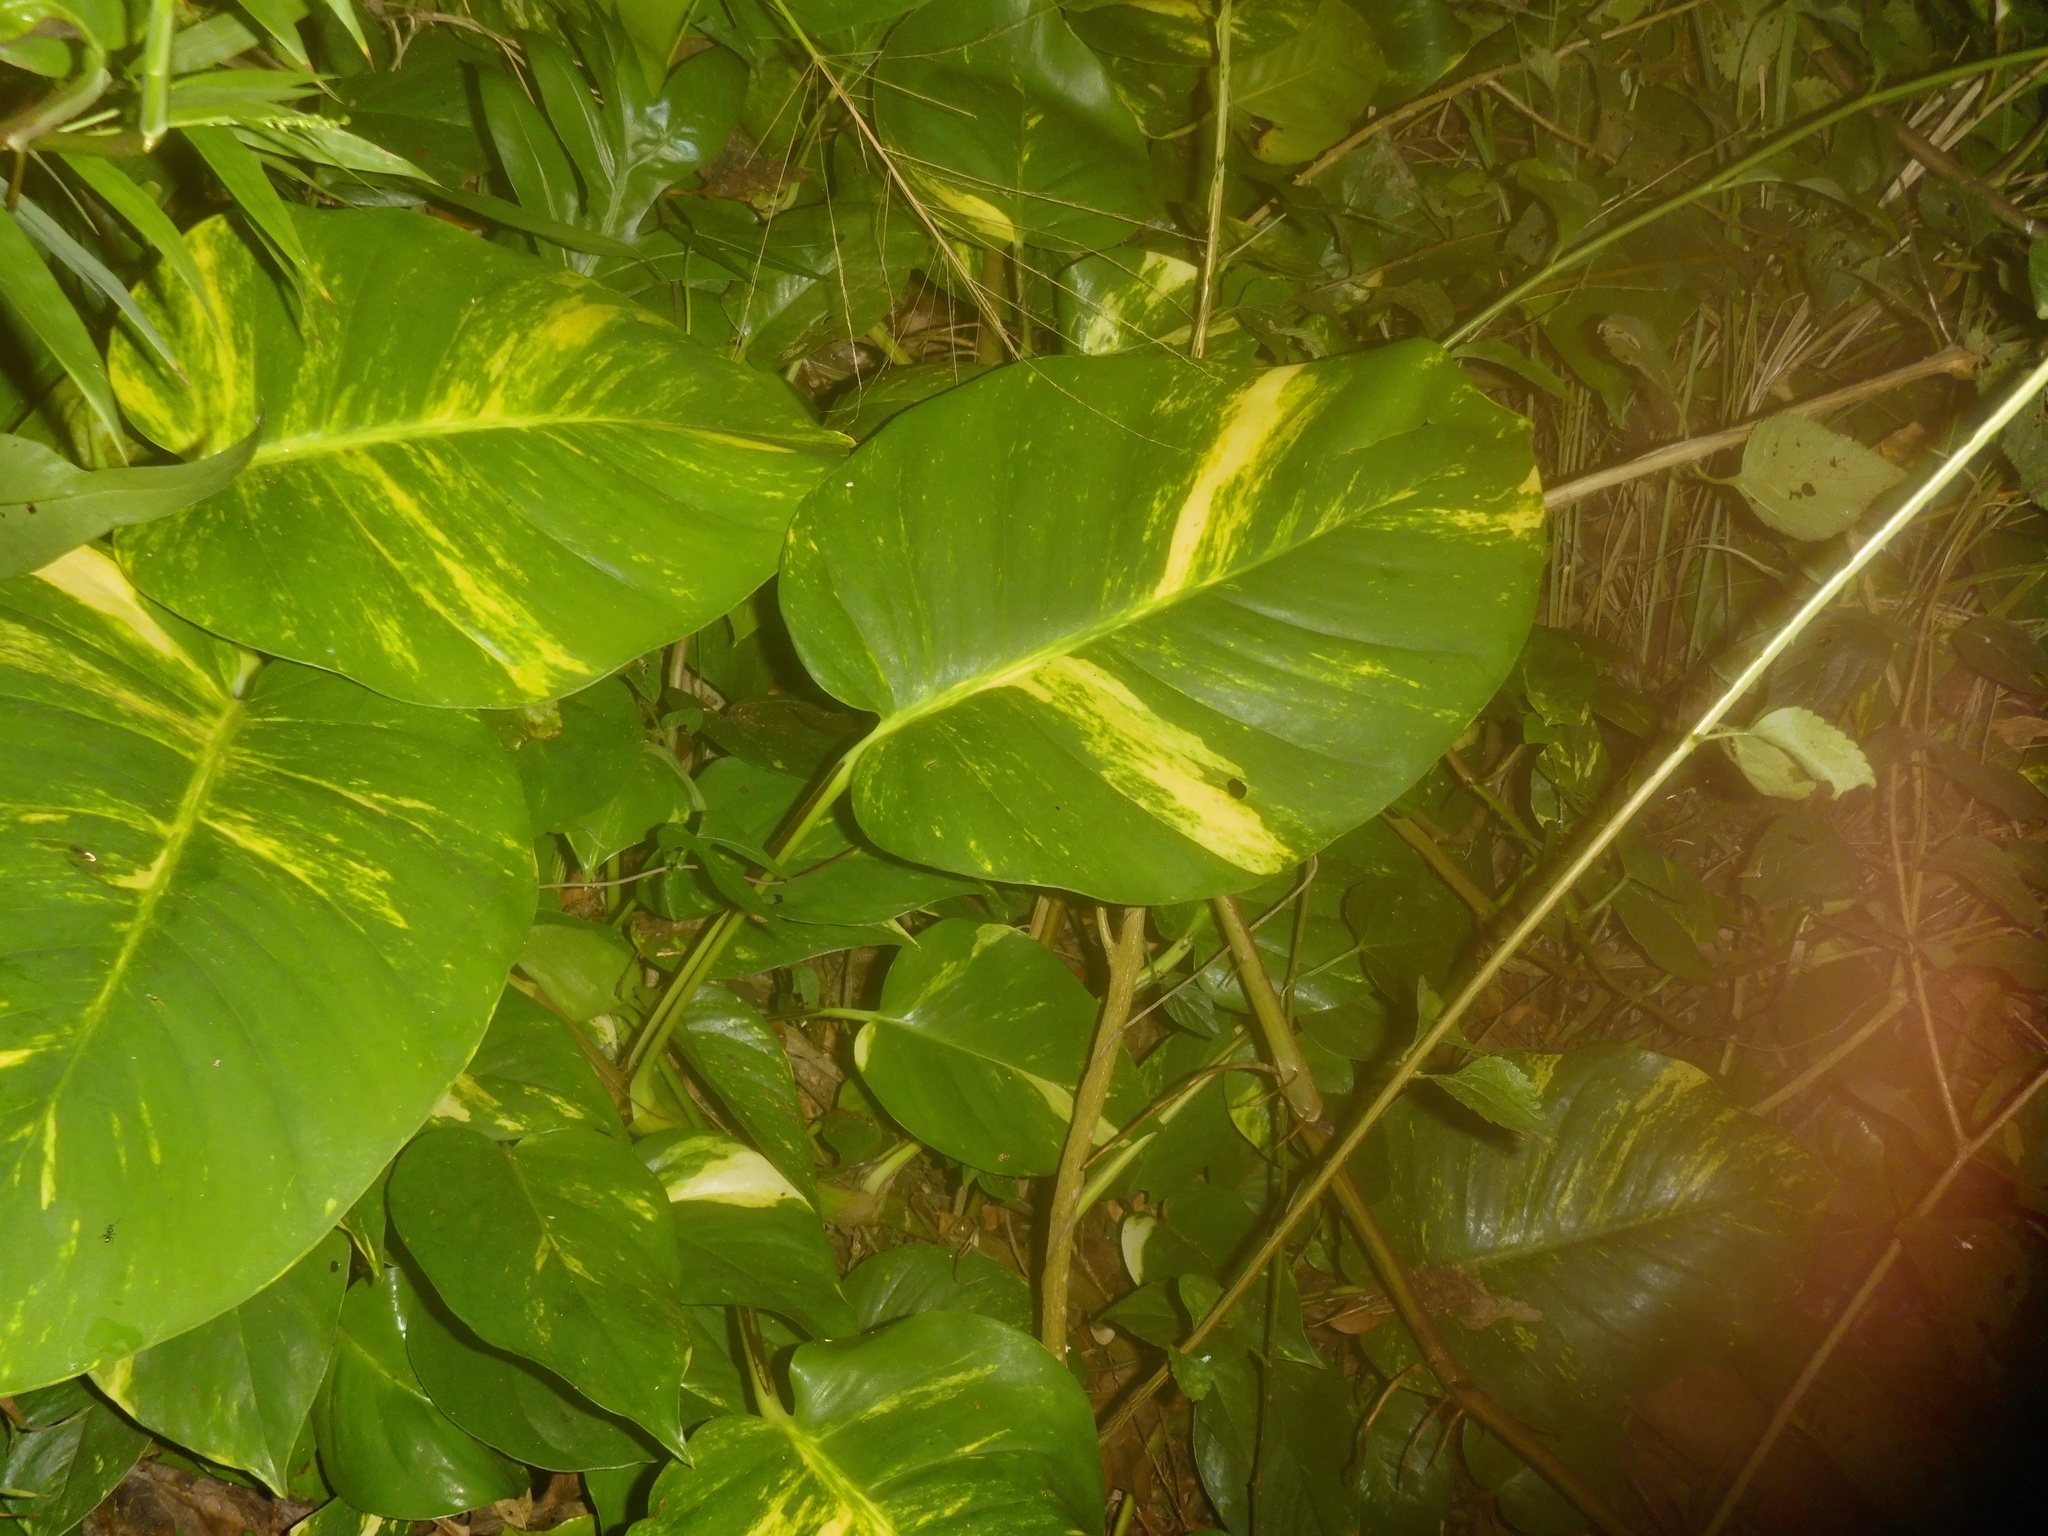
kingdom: Plantae
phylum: Tracheophyta
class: Liliopsida
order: Alismatales
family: Araceae
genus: Epipremnum
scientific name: Epipremnum aureum
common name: Golden hunter's-robe
